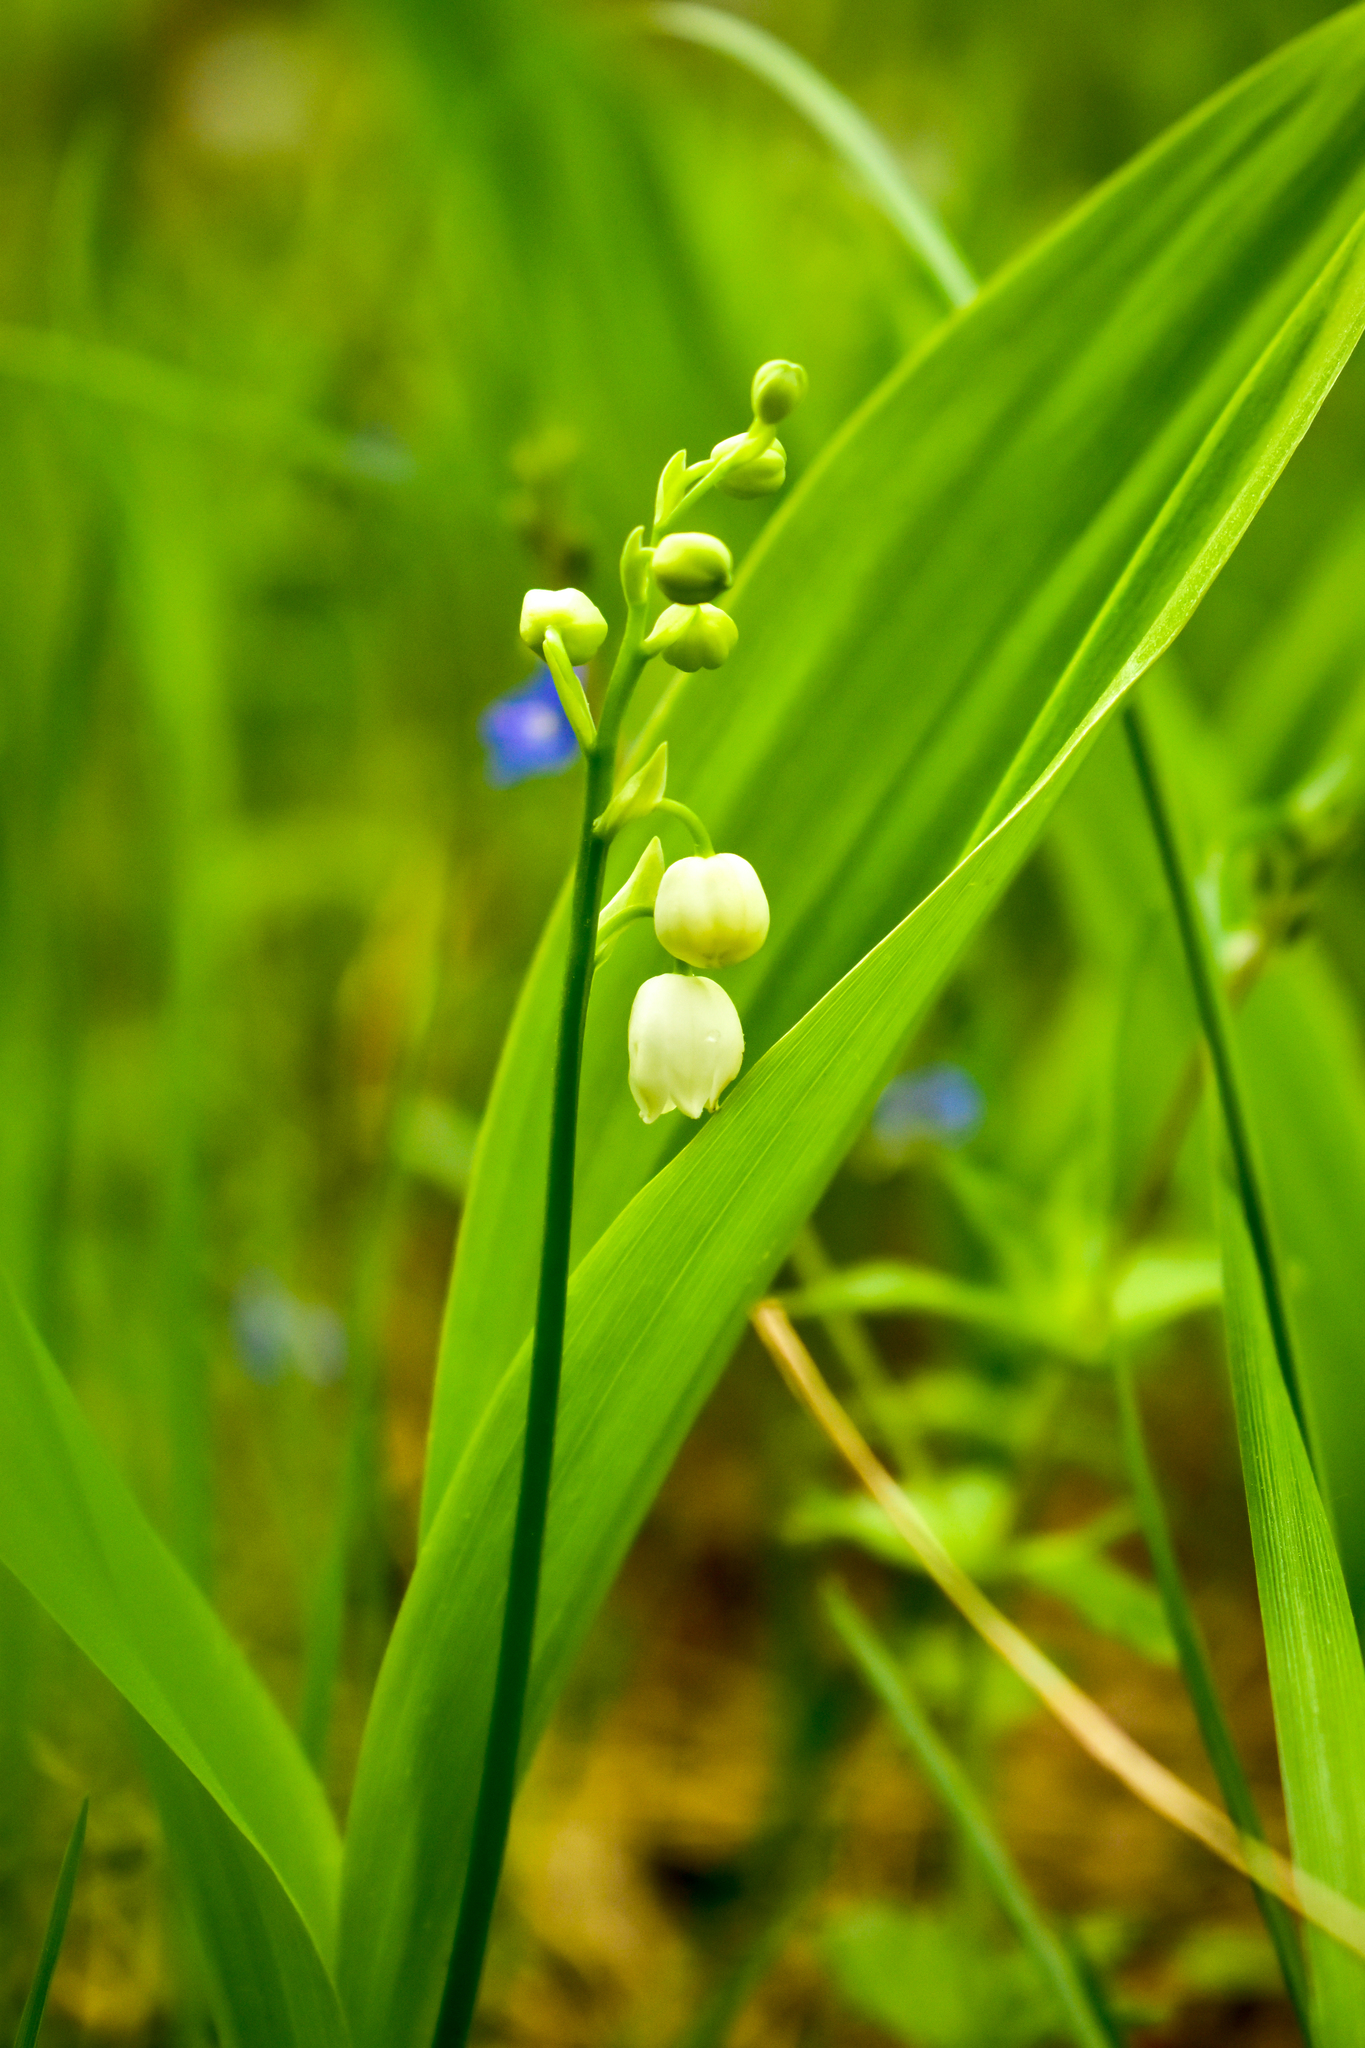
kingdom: Plantae
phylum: Tracheophyta
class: Liliopsida
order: Asparagales
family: Asparagaceae
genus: Convallaria
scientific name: Convallaria majalis
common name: Lily-of-the-valley
